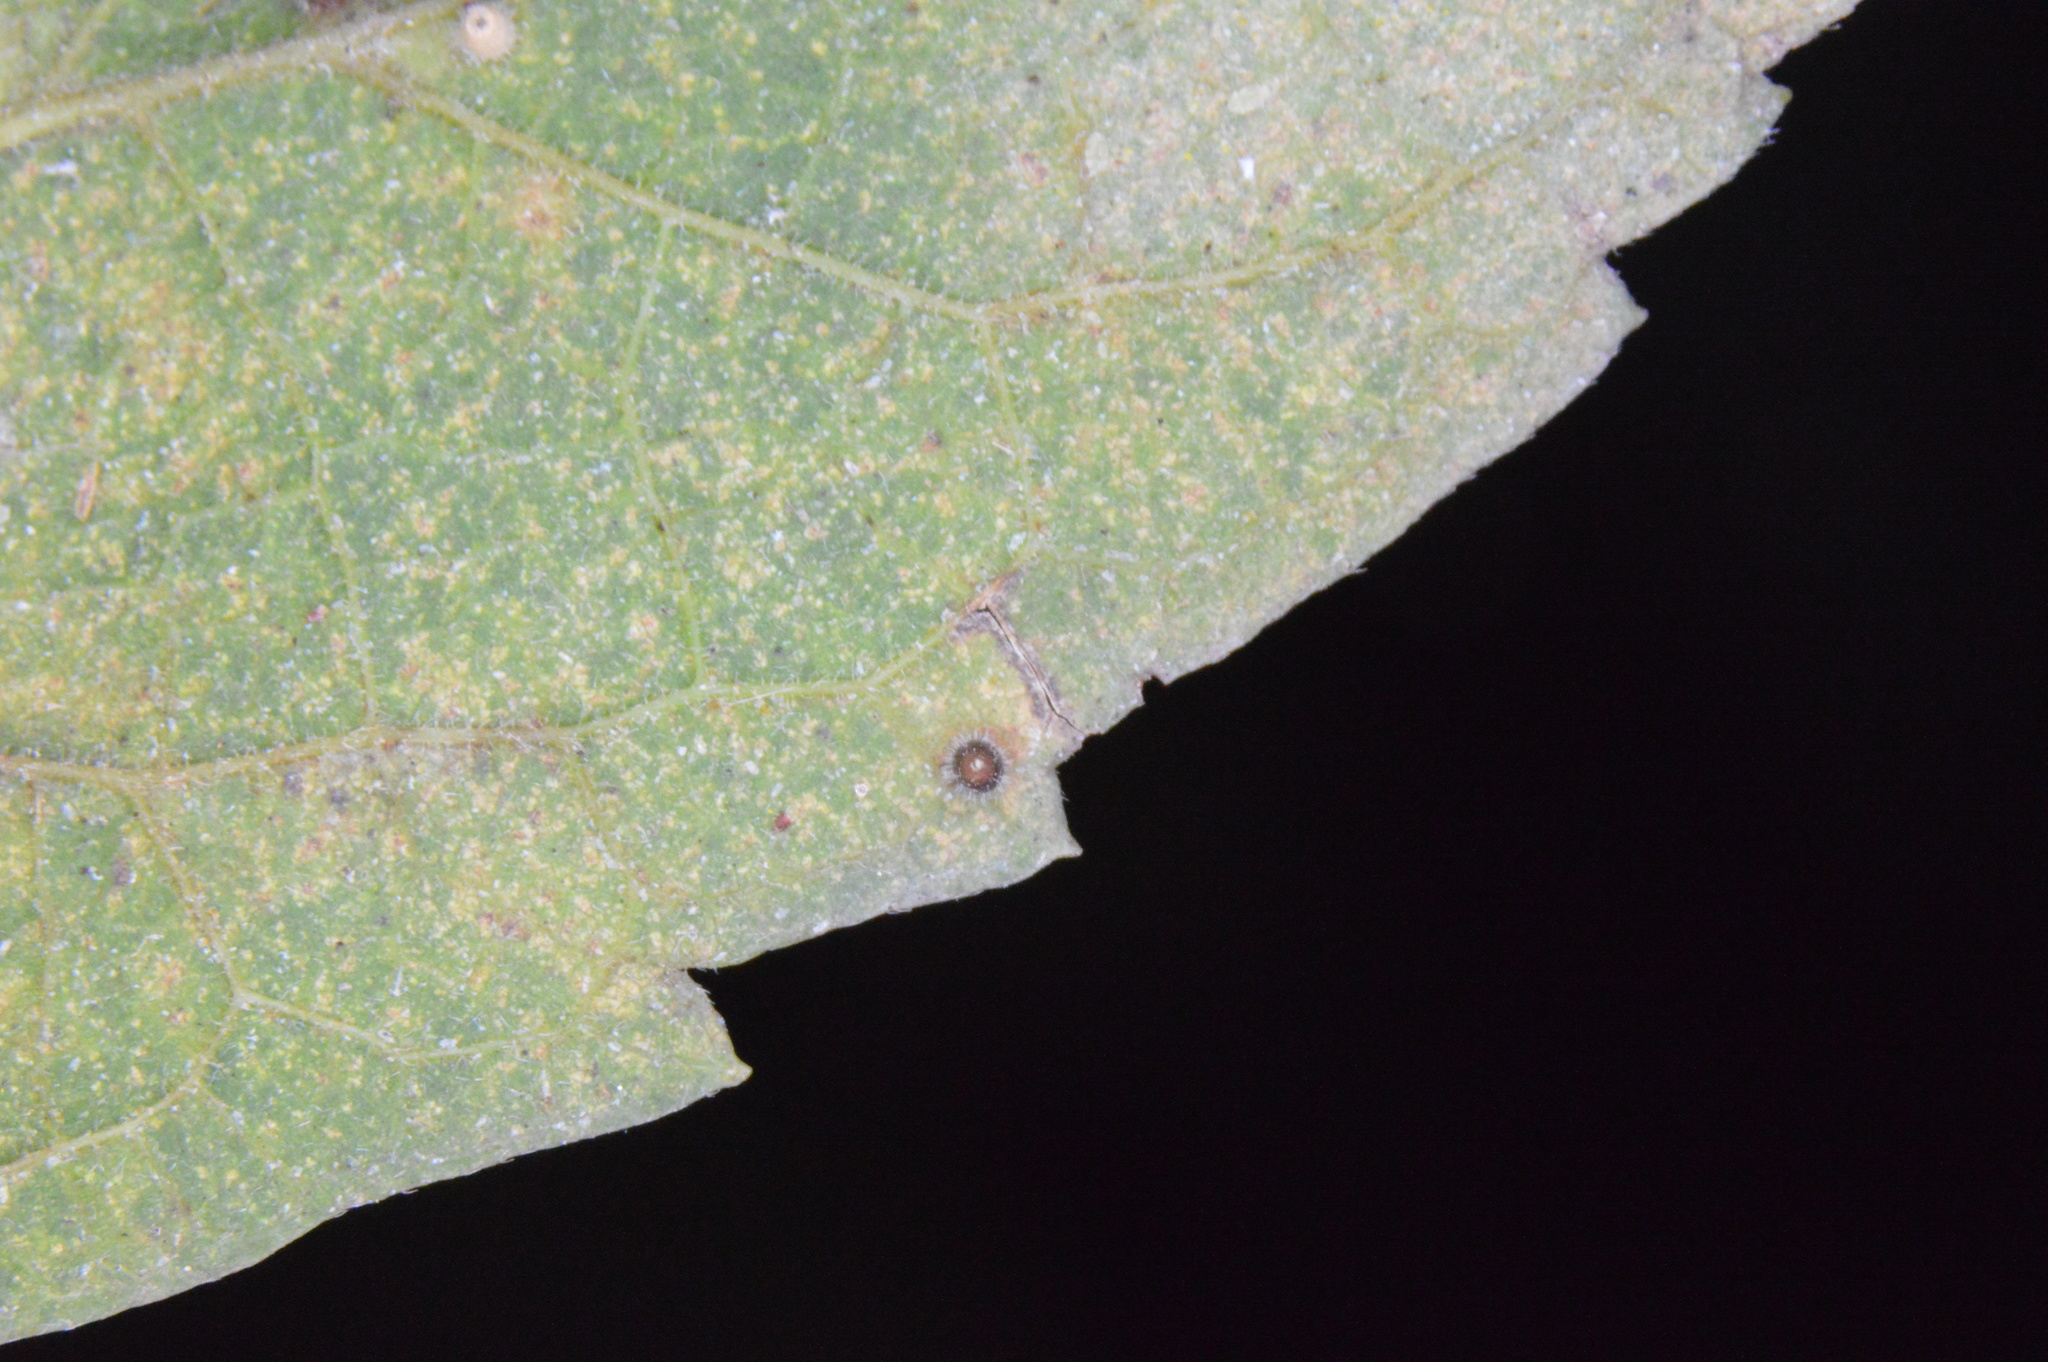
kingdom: Animalia
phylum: Arthropoda
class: Insecta
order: Diptera
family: Cecidomyiidae
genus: Celticecis
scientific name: Celticecis cupiformis
